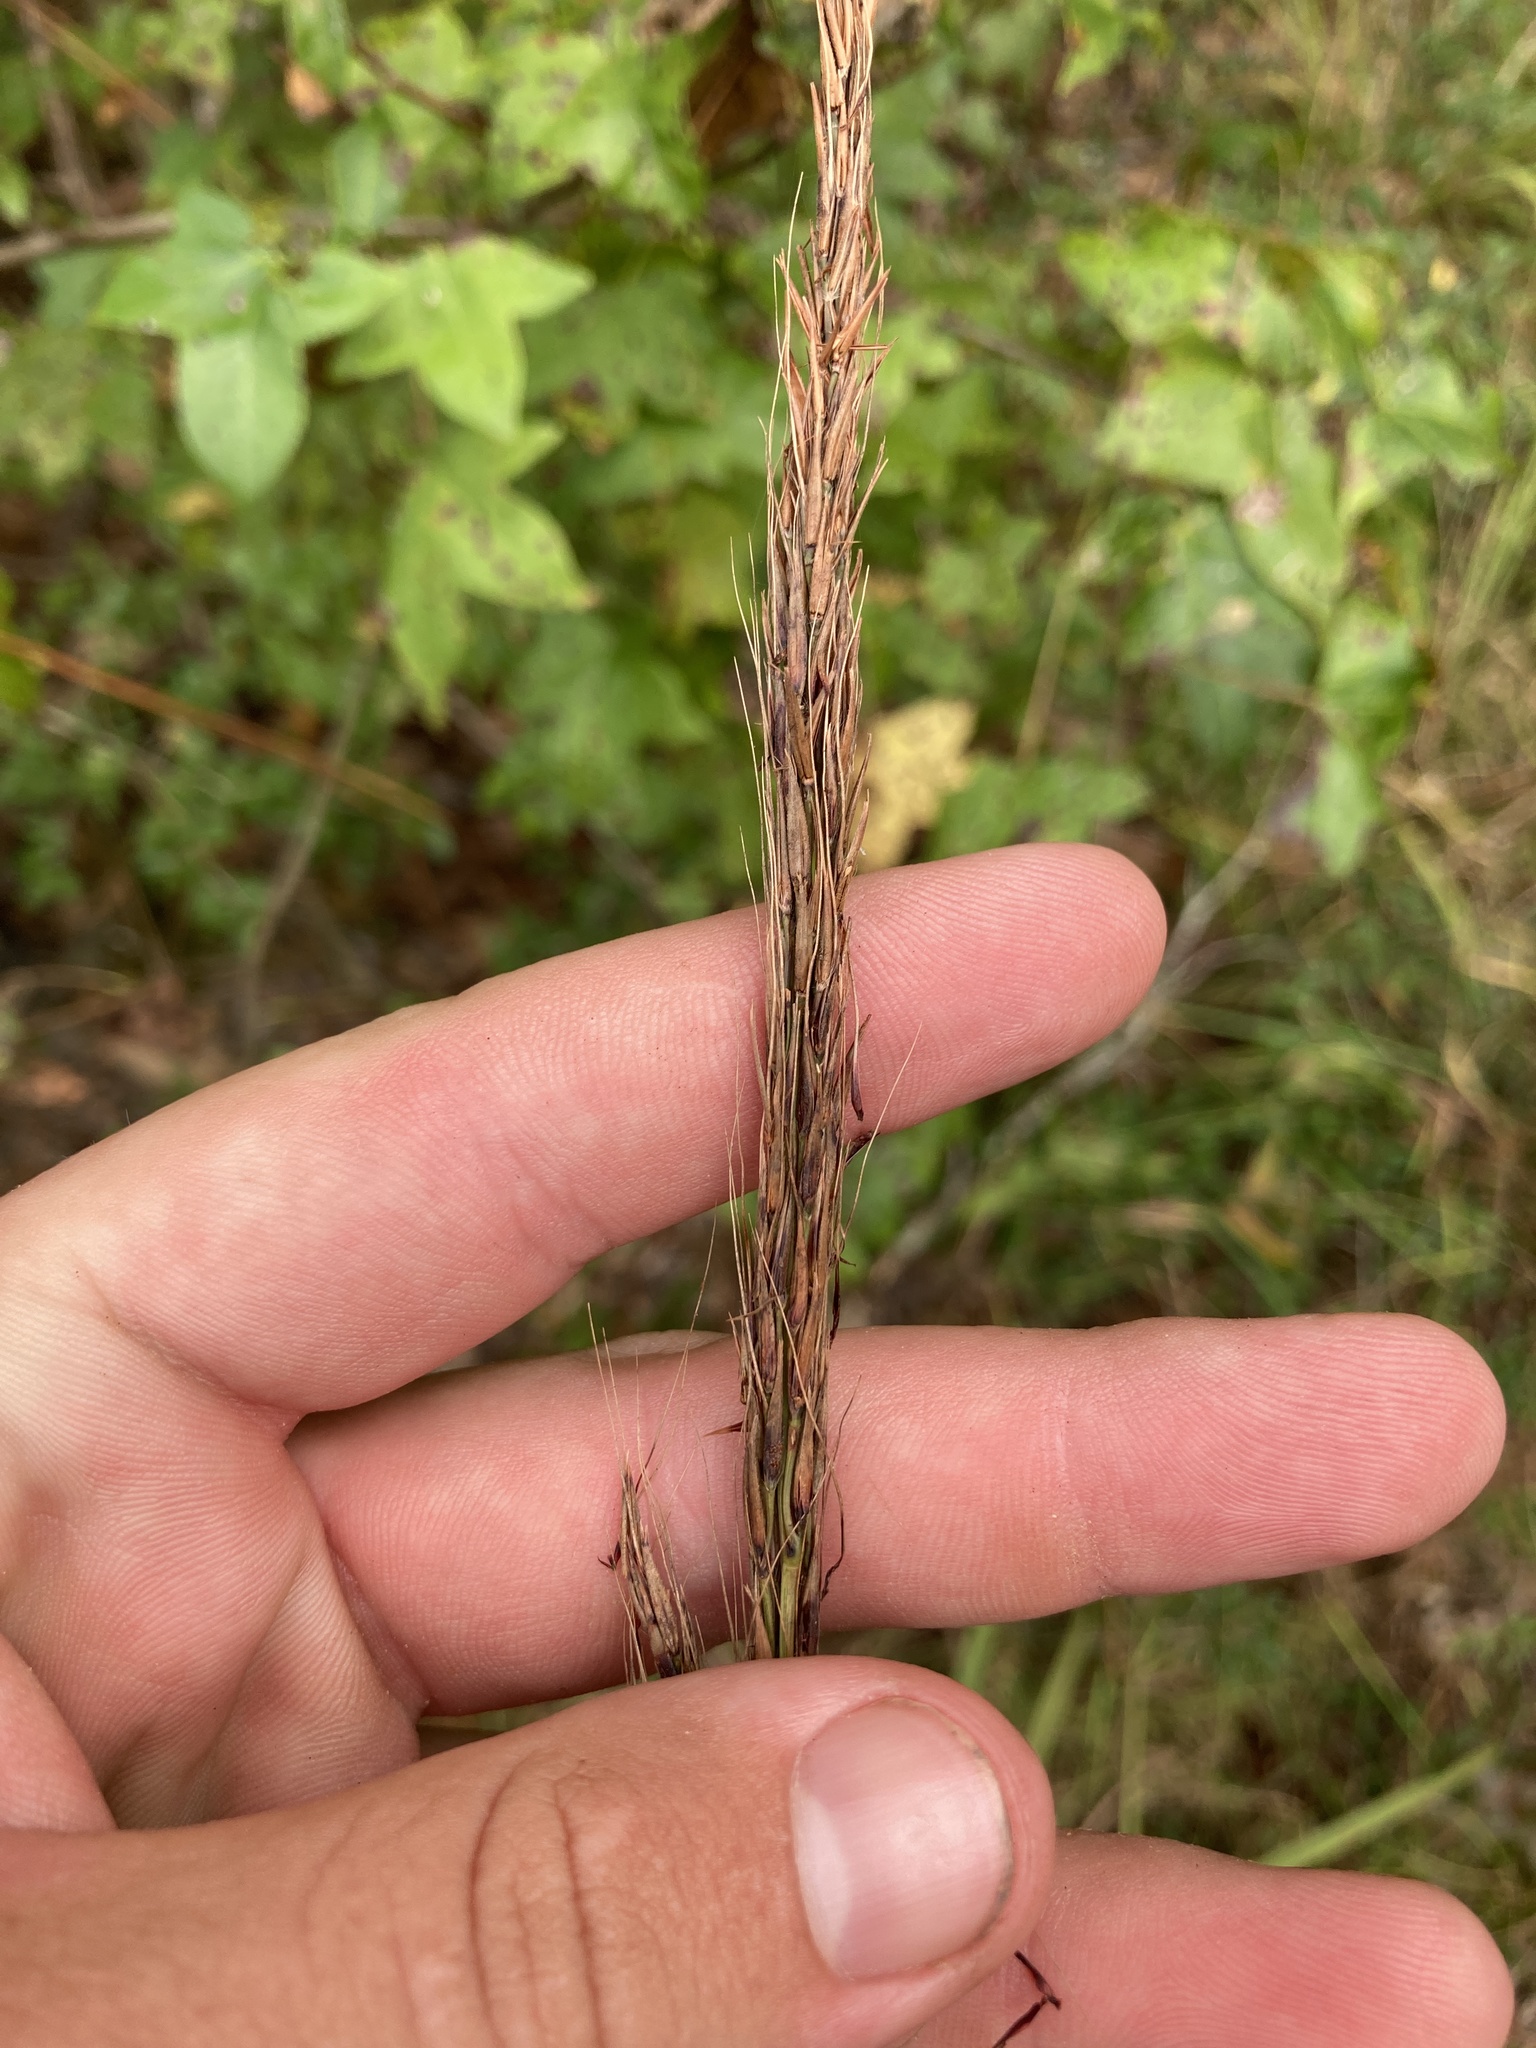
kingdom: Plantae
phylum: Tracheophyta
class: Liliopsida
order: Poales
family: Poaceae
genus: Sorghastrum
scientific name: Sorghastrum elliottii
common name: Slender indian grass
